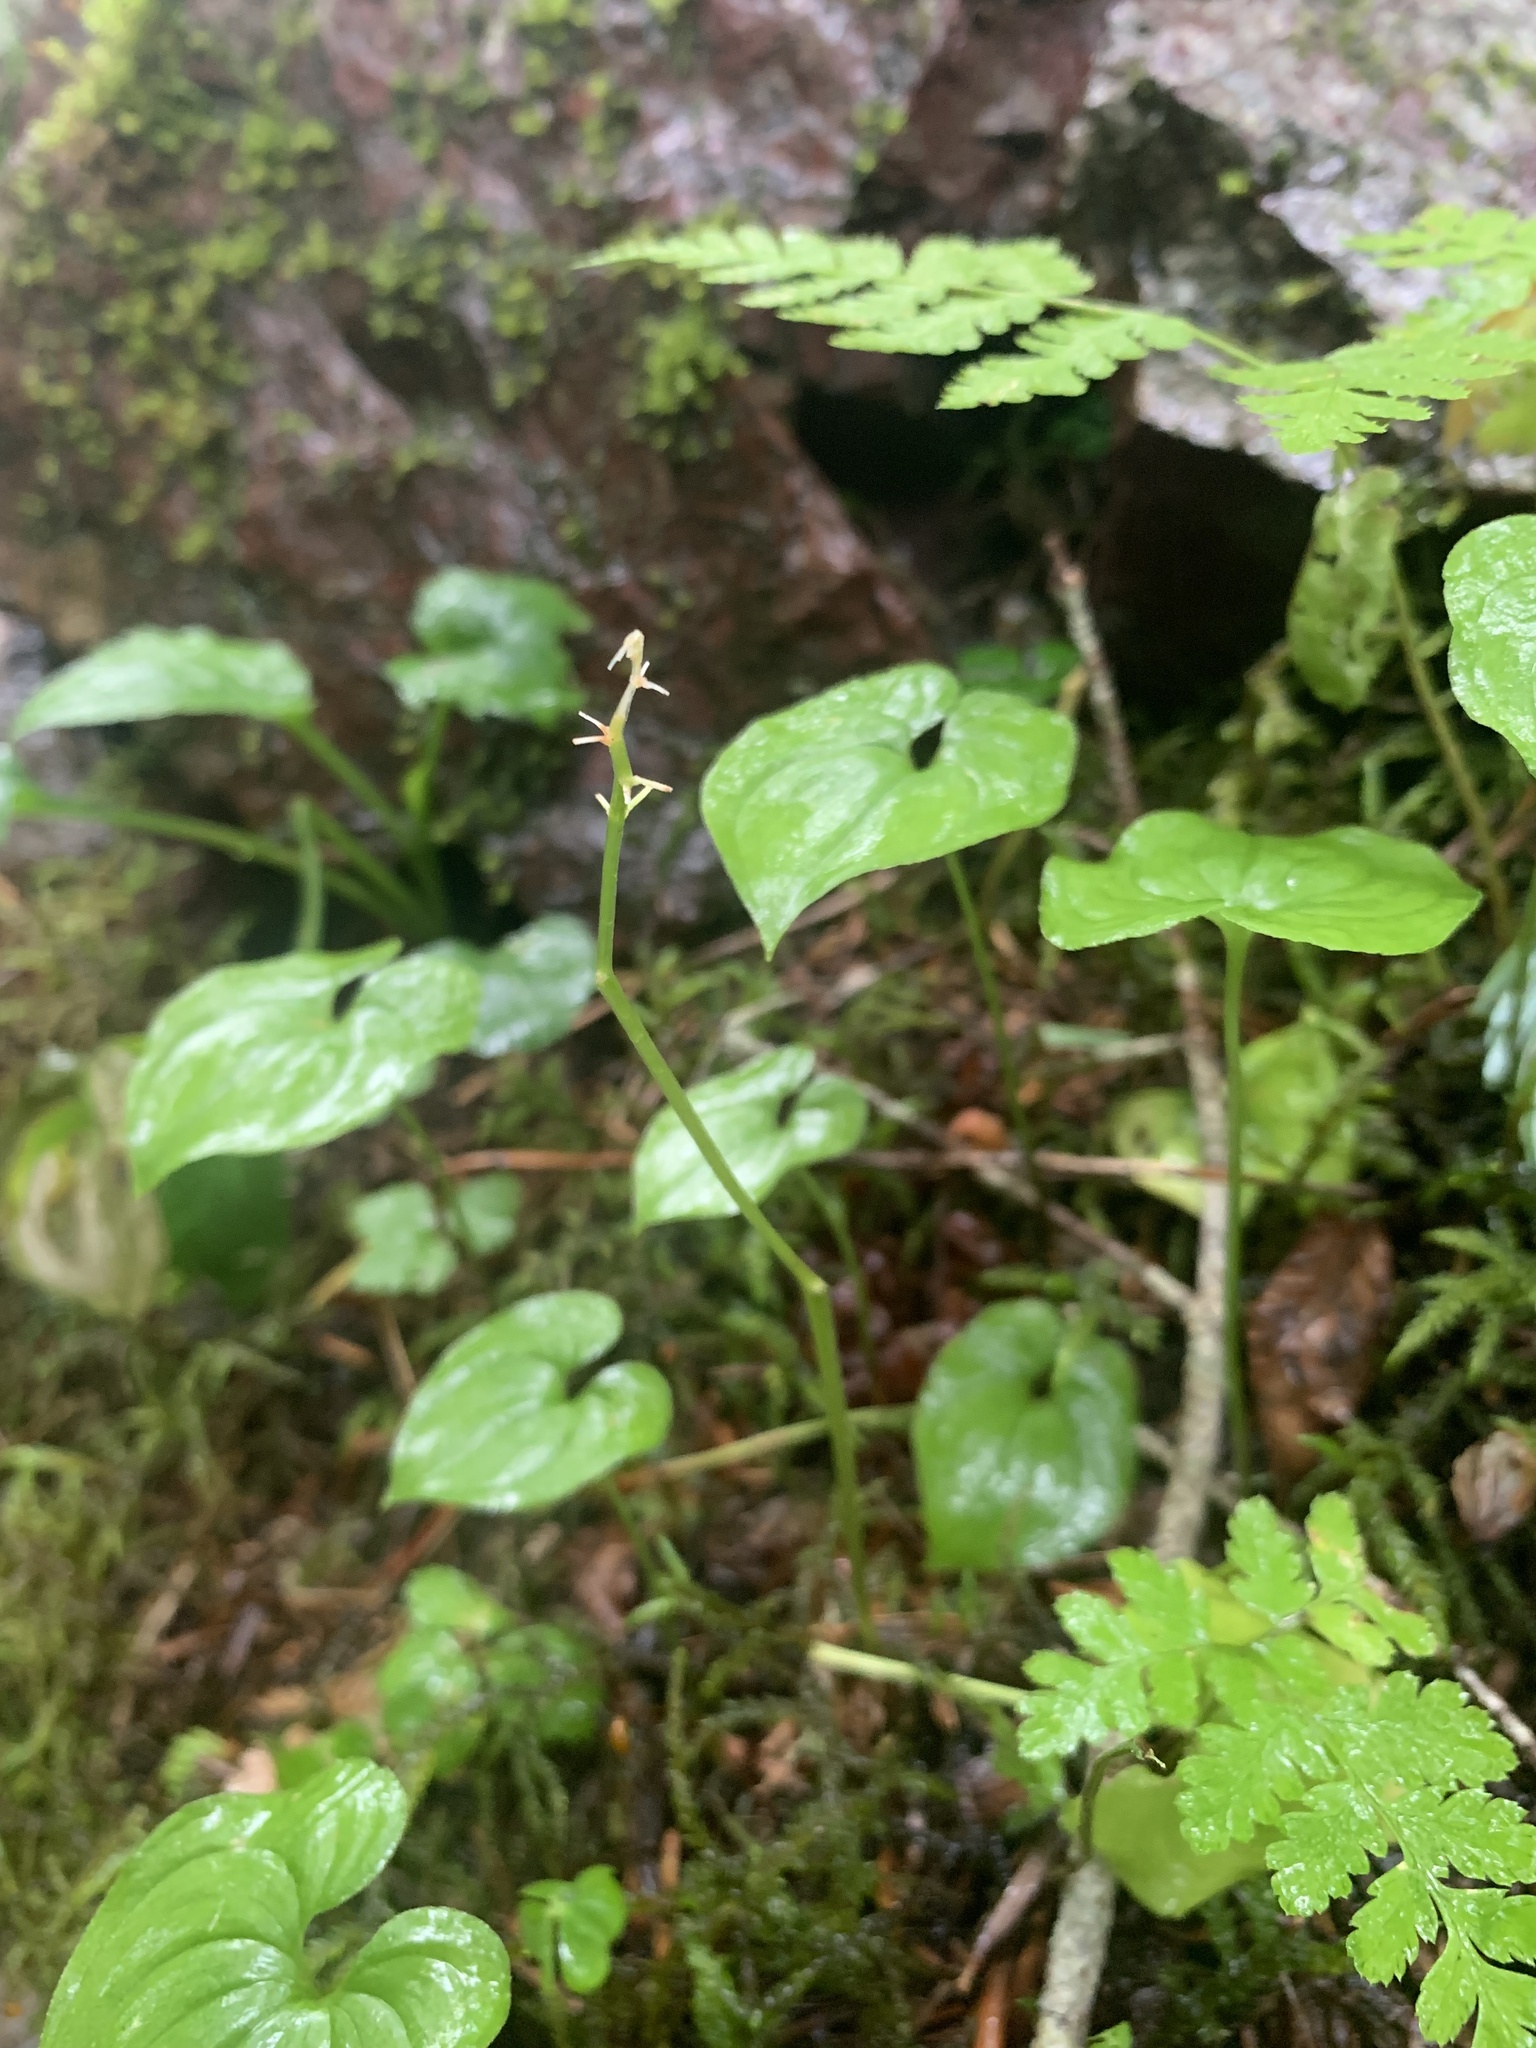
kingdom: Plantae
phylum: Tracheophyta
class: Liliopsida
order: Asparagales
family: Asparagaceae
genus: Maianthemum
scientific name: Maianthemum dilatatum
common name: False lily-of-the-valley
